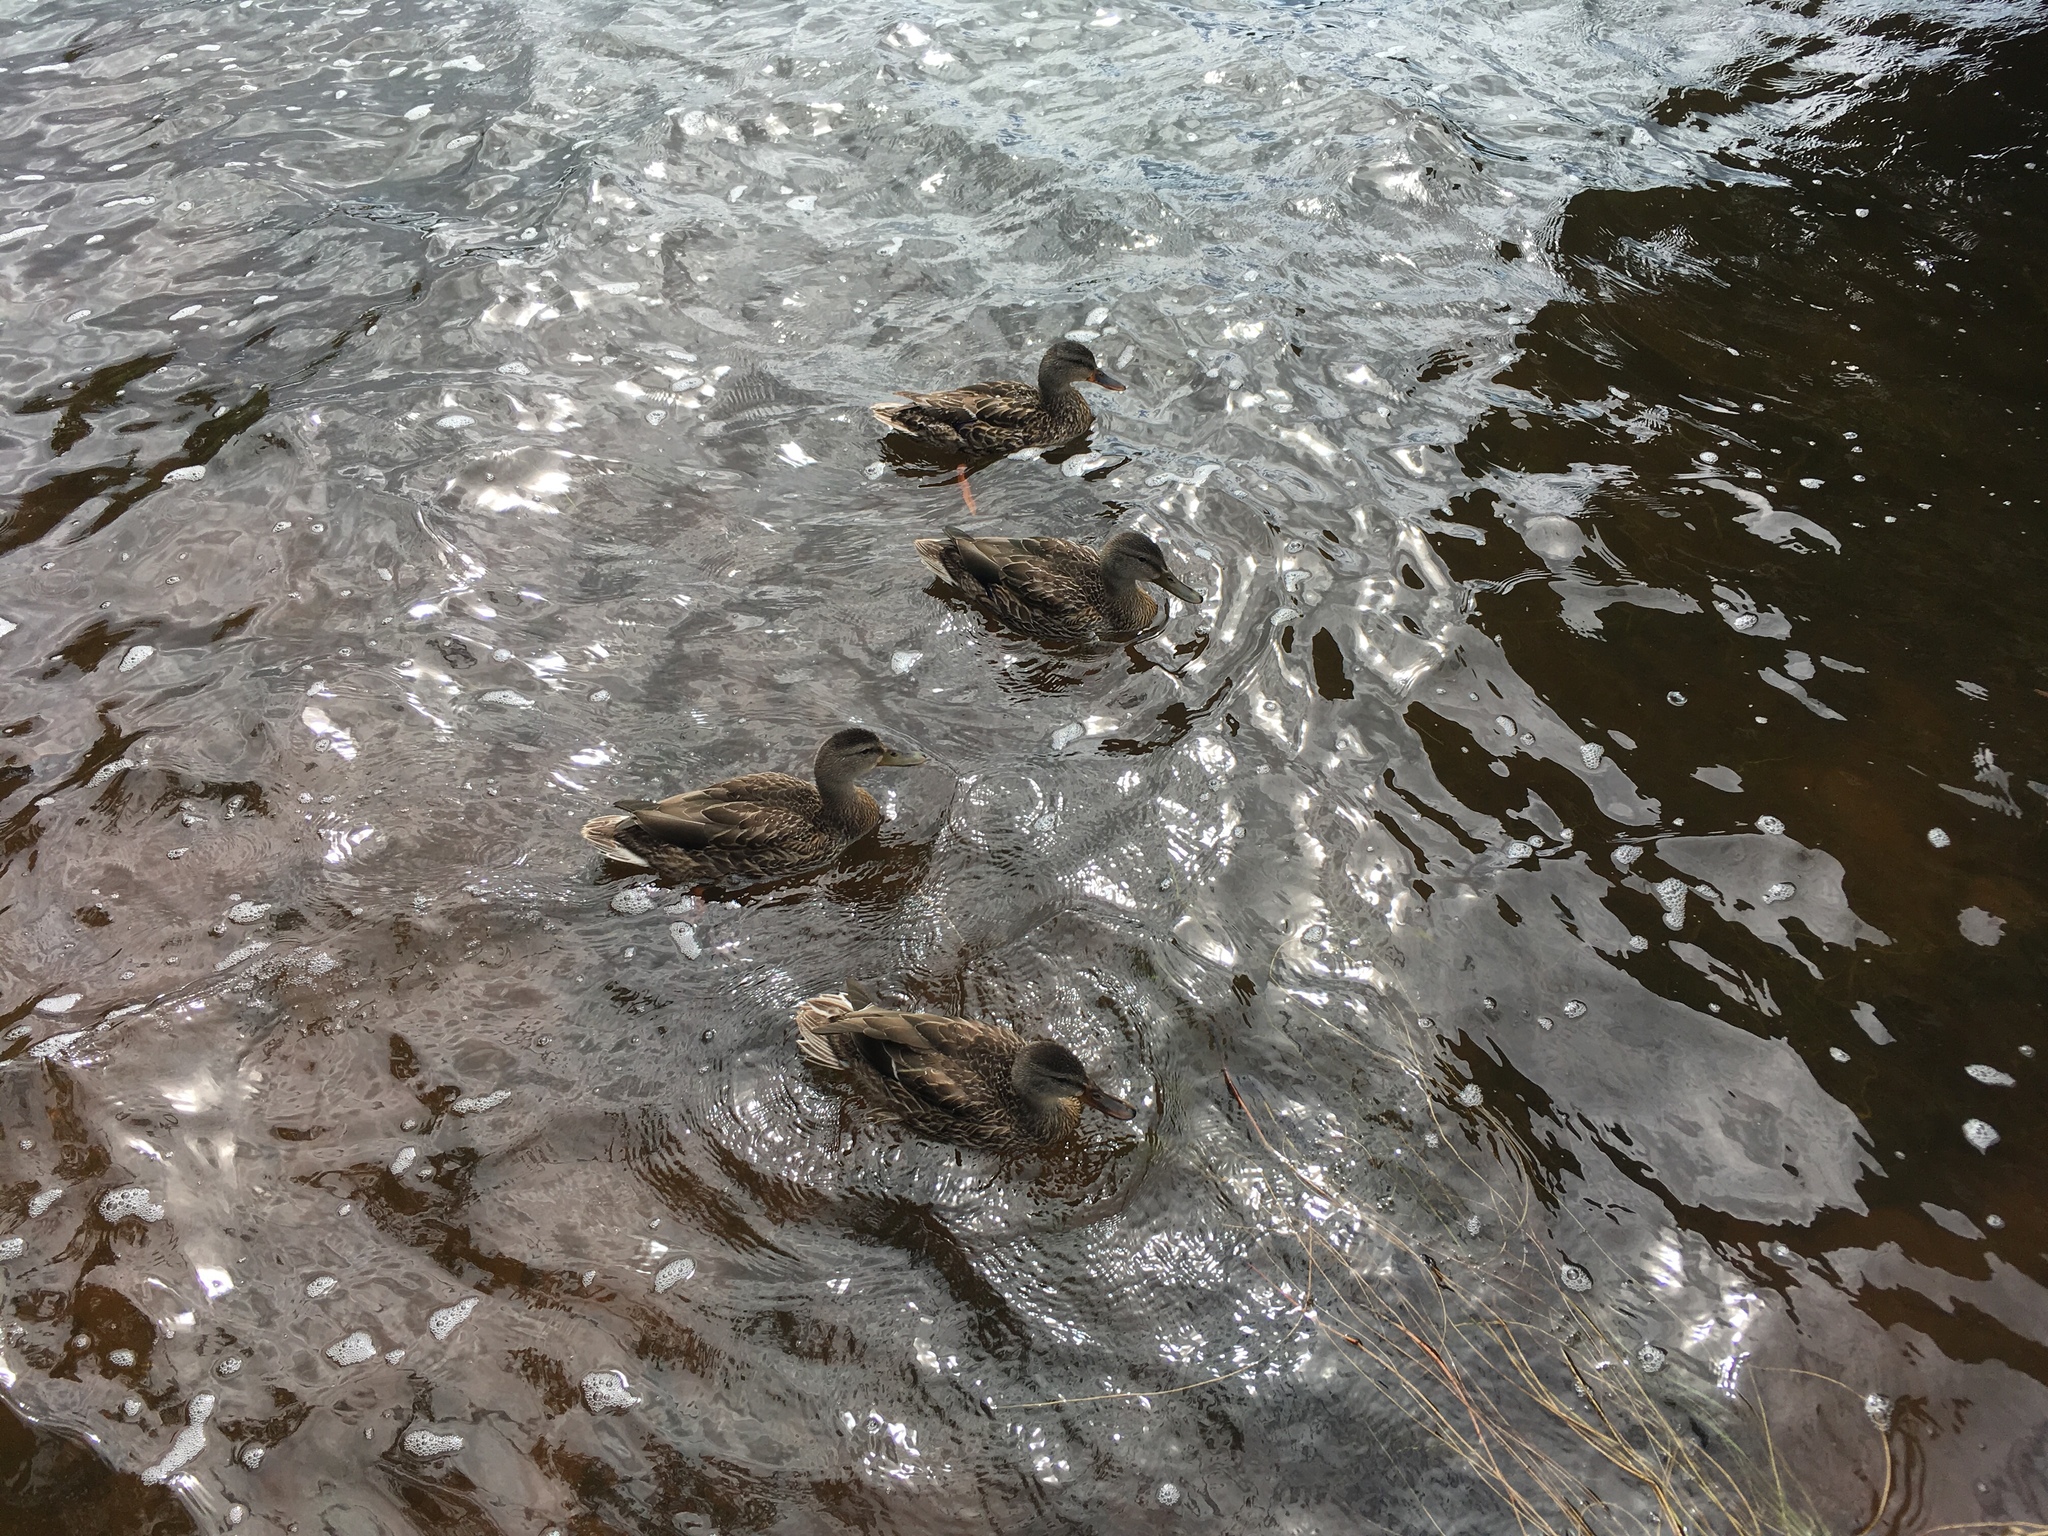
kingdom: Animalia
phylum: Chordata
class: Aves
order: Anseriformes
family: Anatidae
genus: Anas
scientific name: Anas platyrhynchos
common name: Mallard
